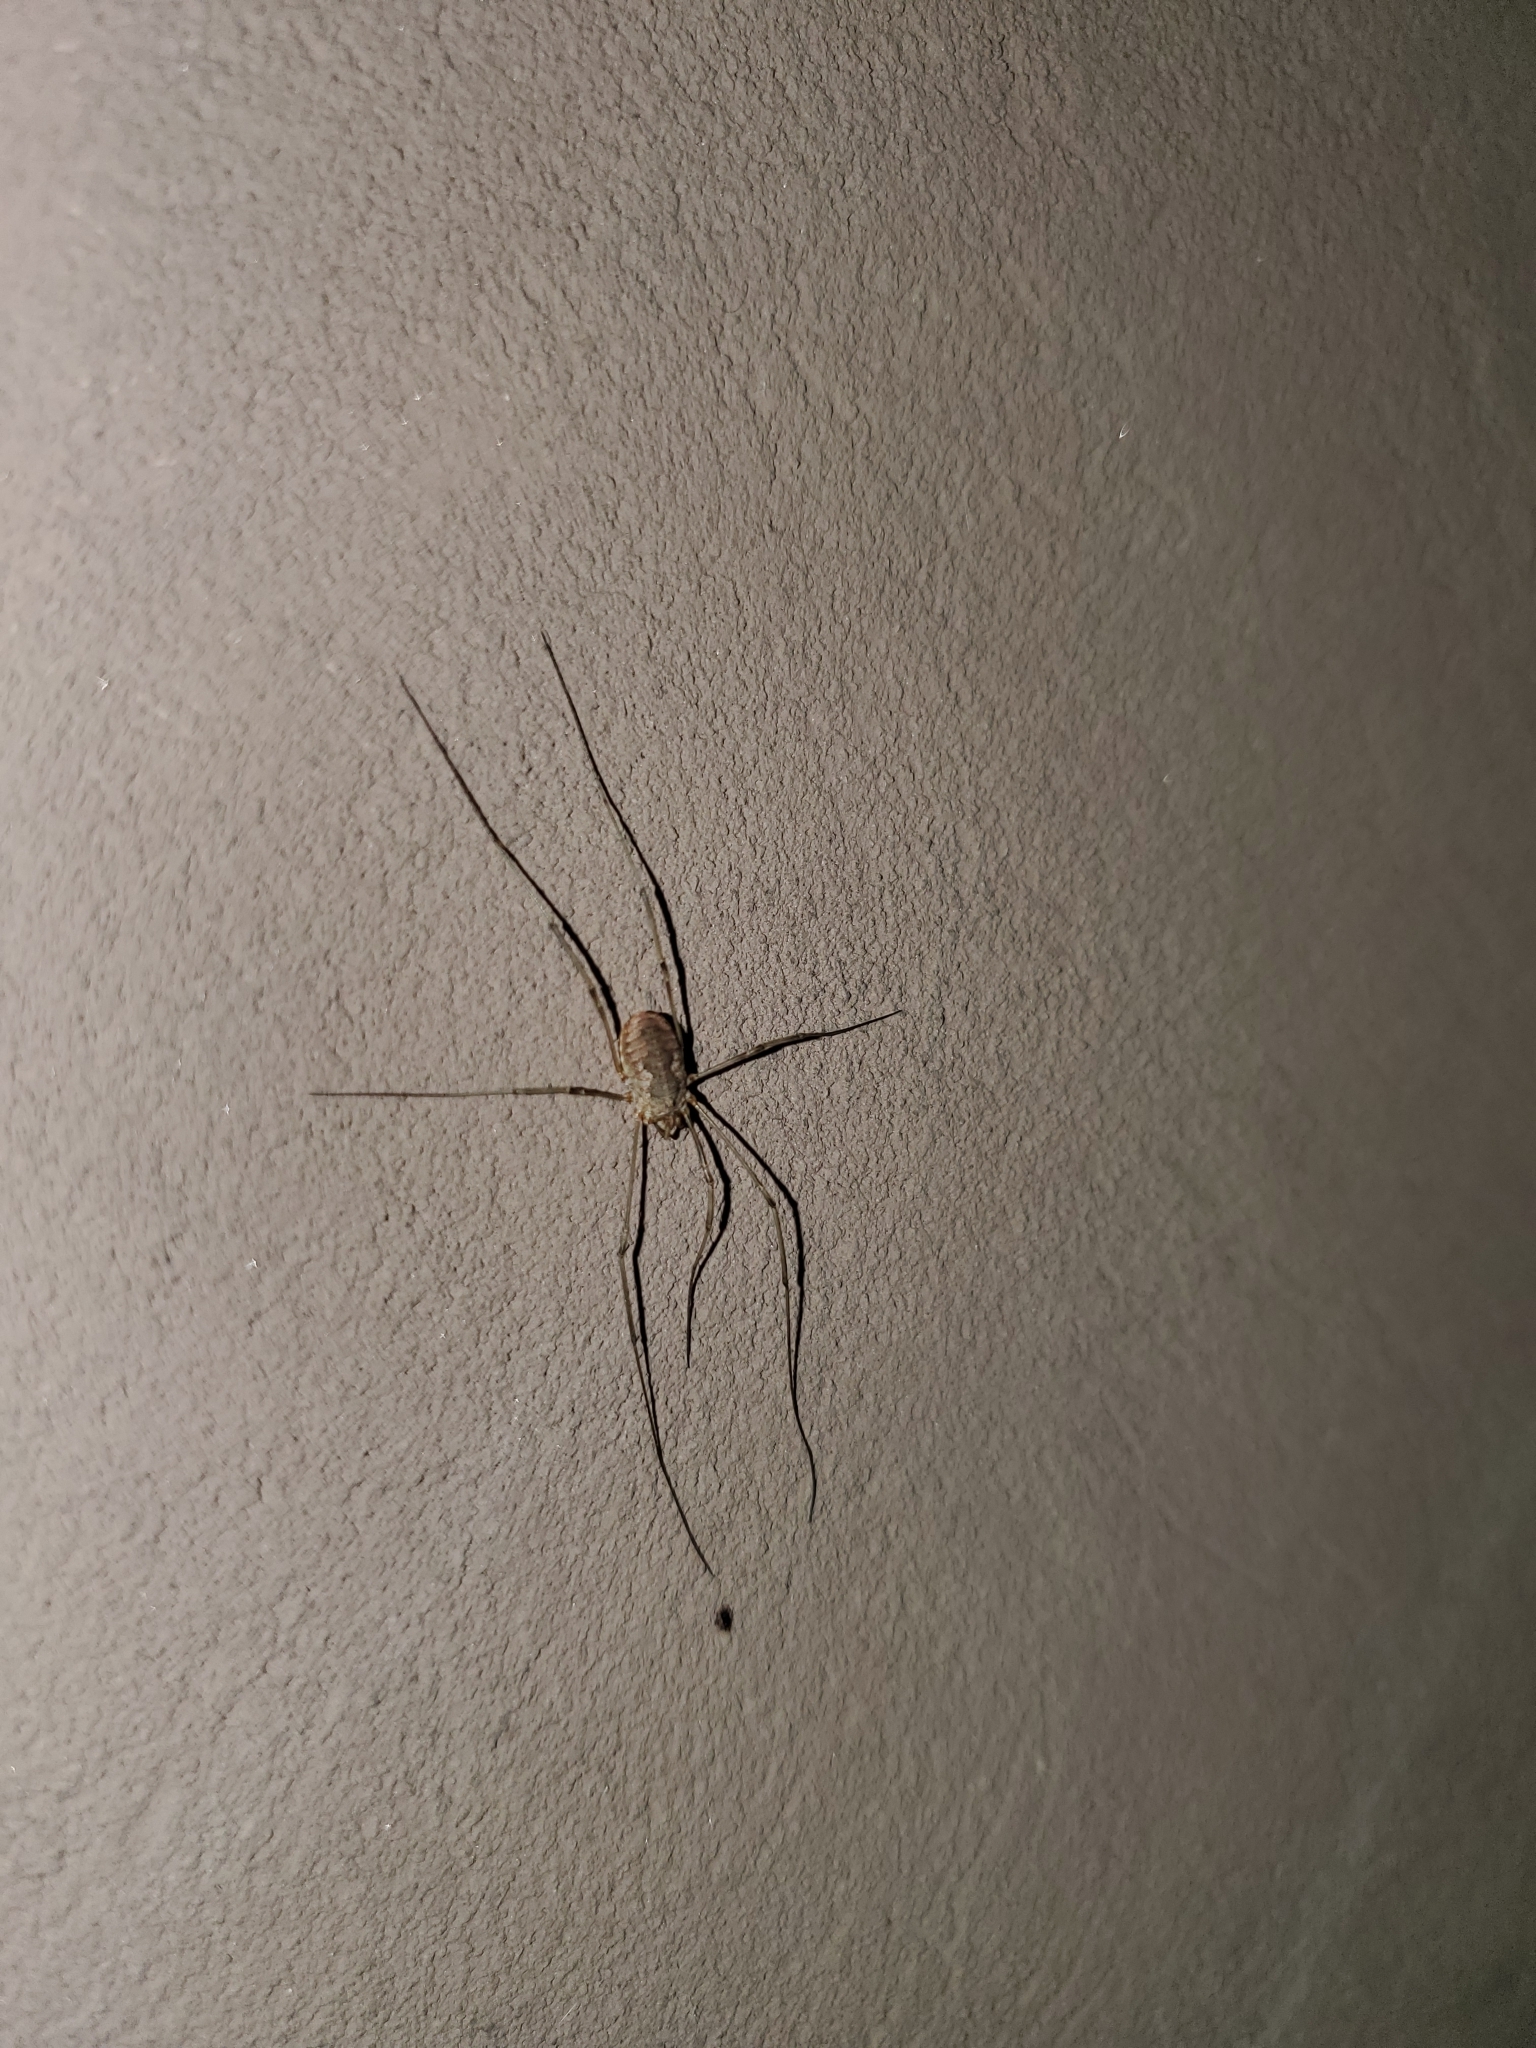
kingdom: Animalia
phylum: Arthropoda
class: Arachnida
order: Opiliones
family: Phalangiidae
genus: Phalangium
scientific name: Phalangium opilio
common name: Daddy longleg
